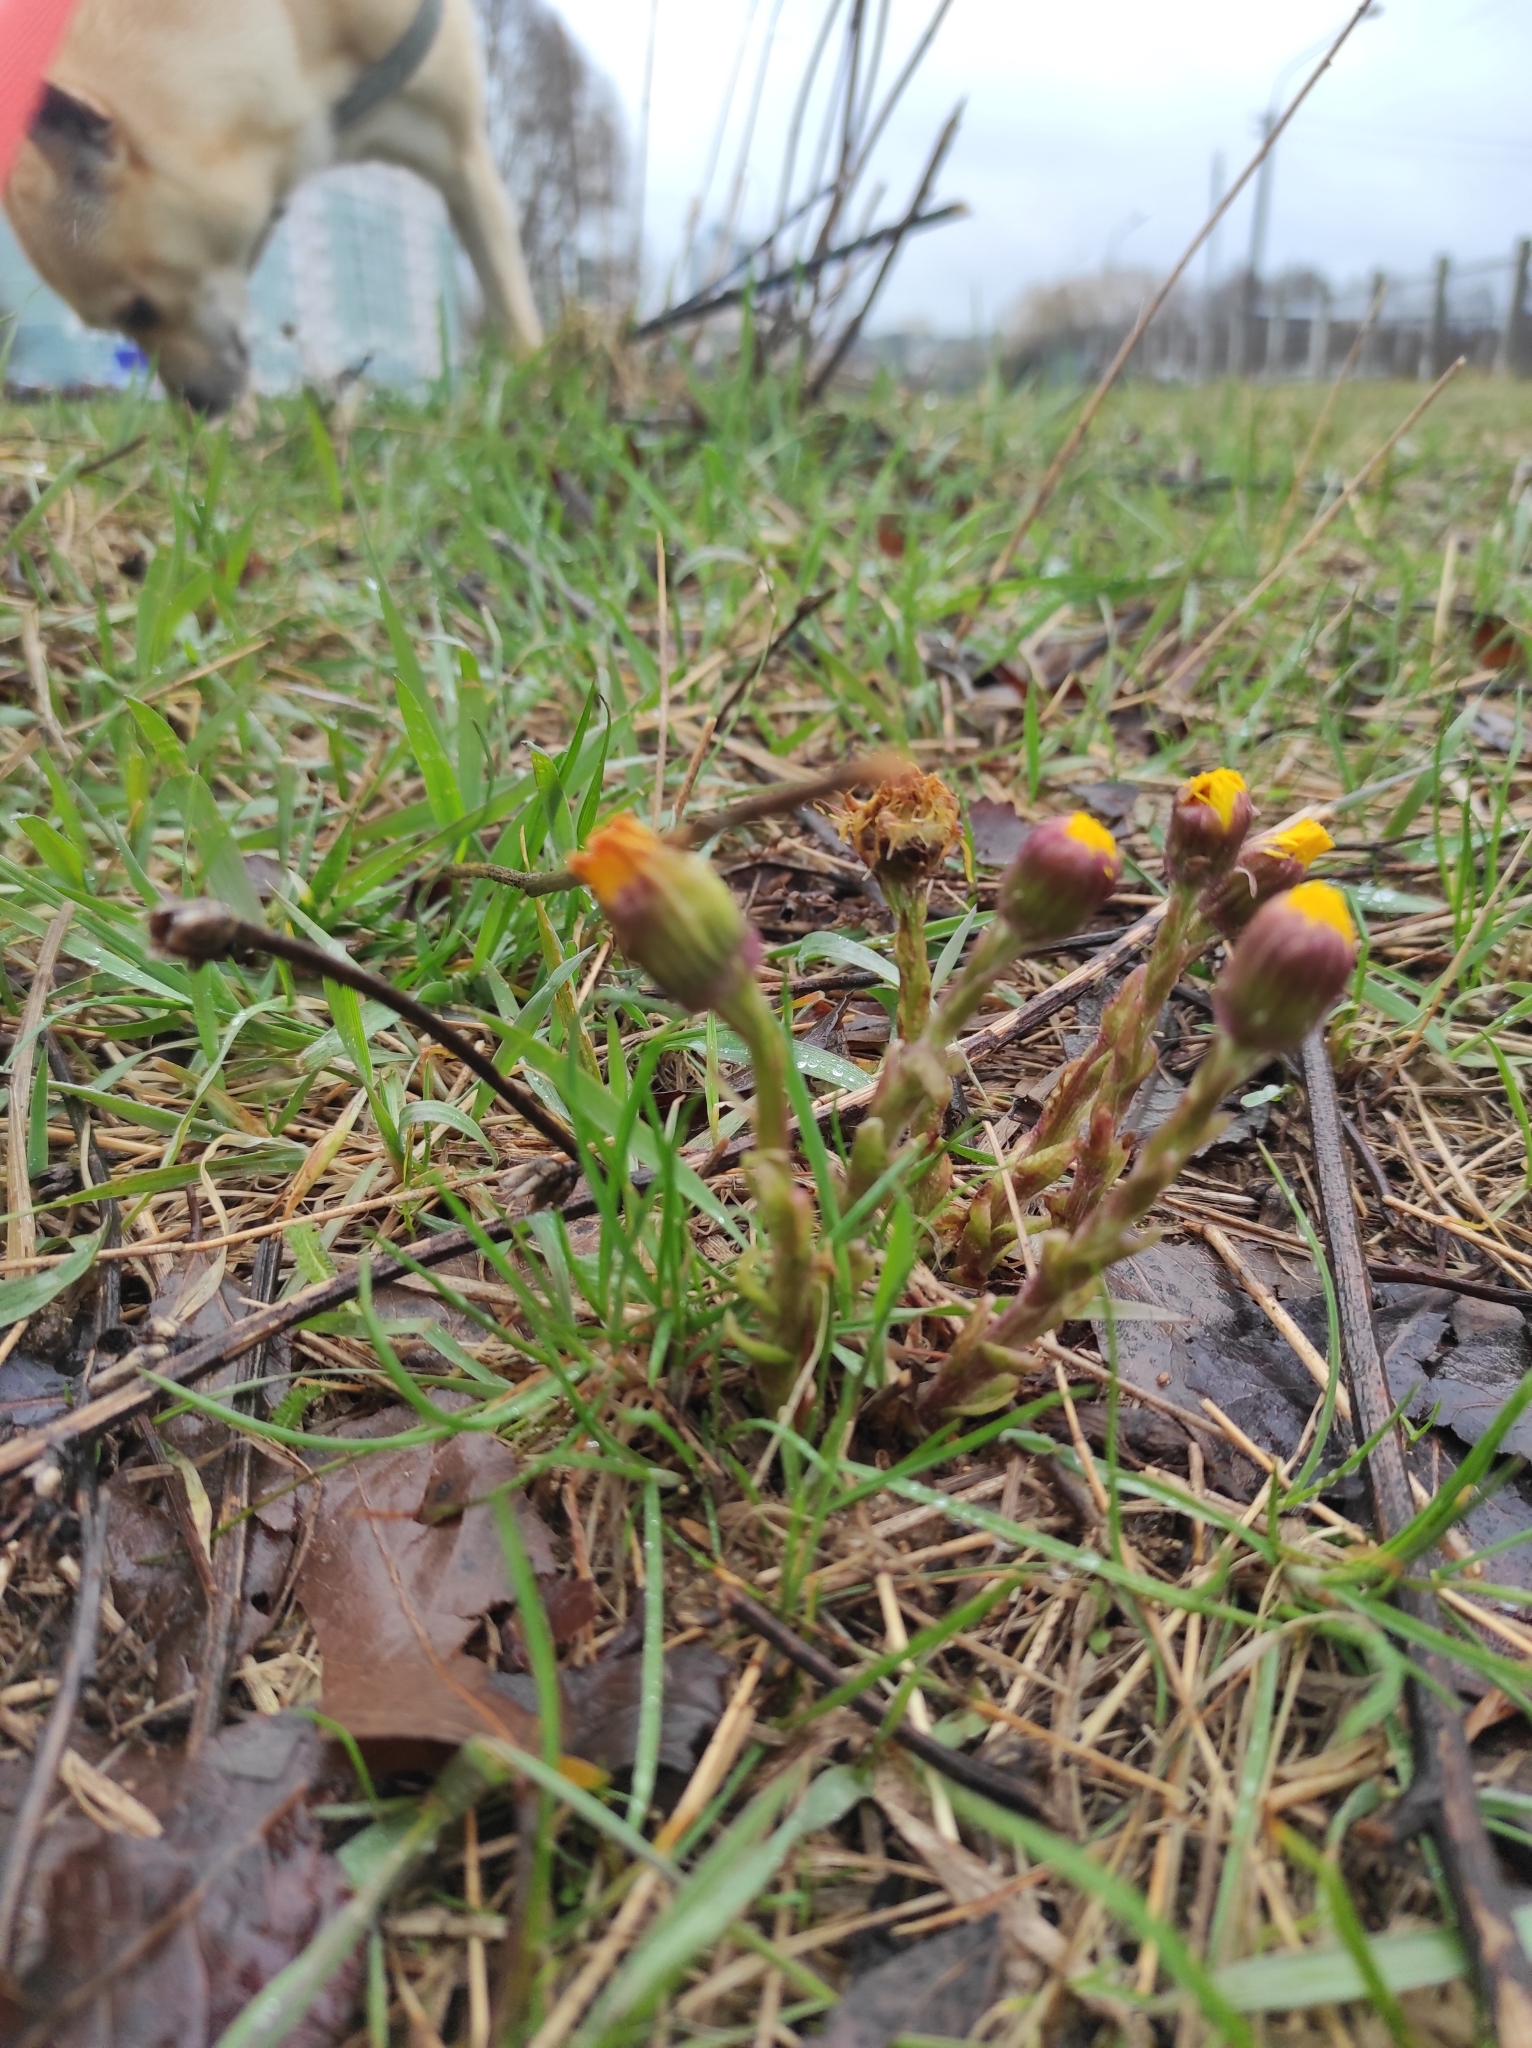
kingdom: Plantae
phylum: Tracheophyta
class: Magnoliopsida
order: Asterales
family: Asteraceae
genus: Tussilago
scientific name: Tussilago farfara
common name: Coltsfoot
